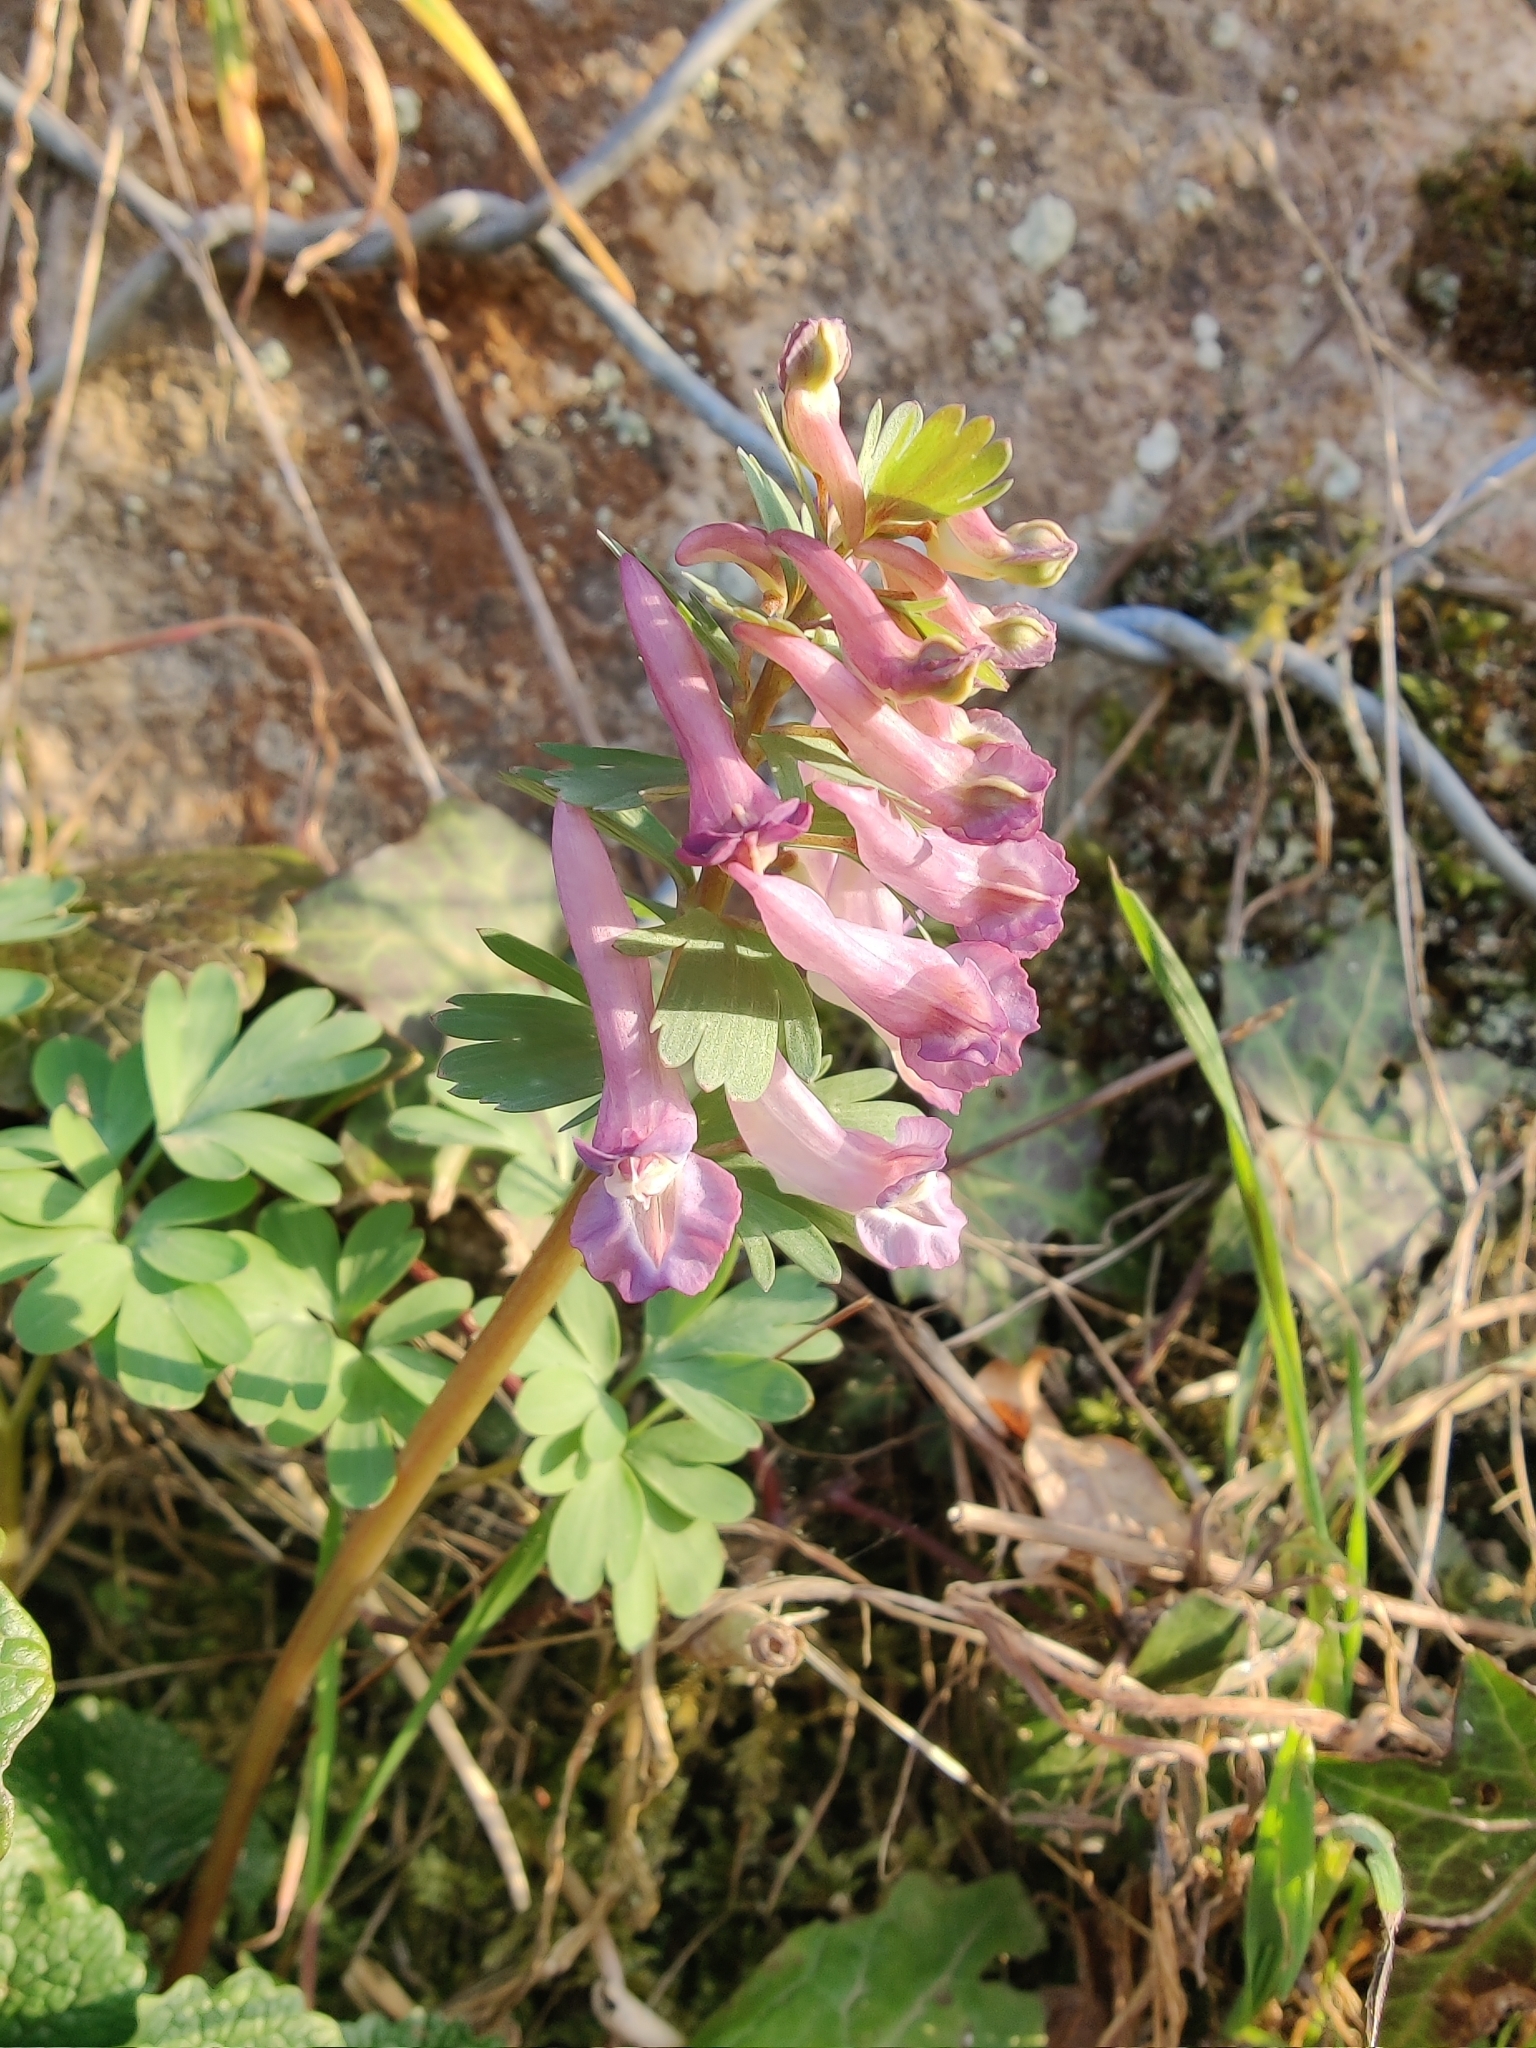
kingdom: Plantae
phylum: Tracheophyta
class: Magnoliopsida
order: Ranunculales
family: Papaveraceae
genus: Corydalis
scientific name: Corydalis solida
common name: Bird-in-a-bush
